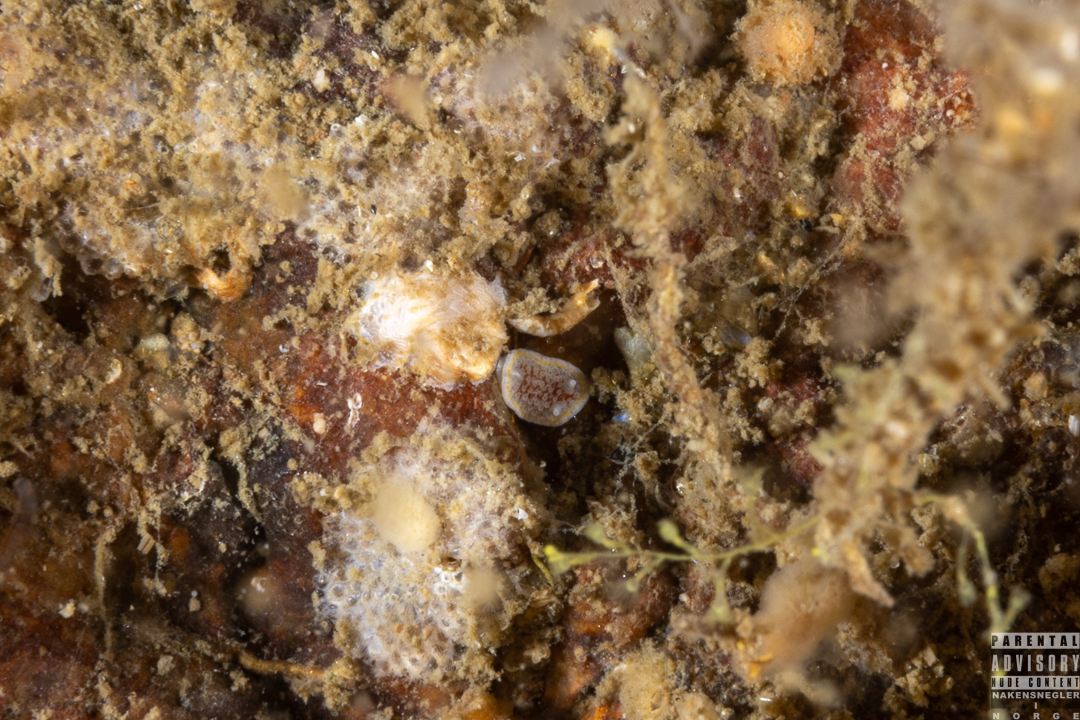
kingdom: Animalia
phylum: Mollusca
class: Gastropoda
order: Nudibranchia
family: Calycidorididae
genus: Diaphorodoris
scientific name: Diaphorodoris luteocincta
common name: Fried egg nudibranch
